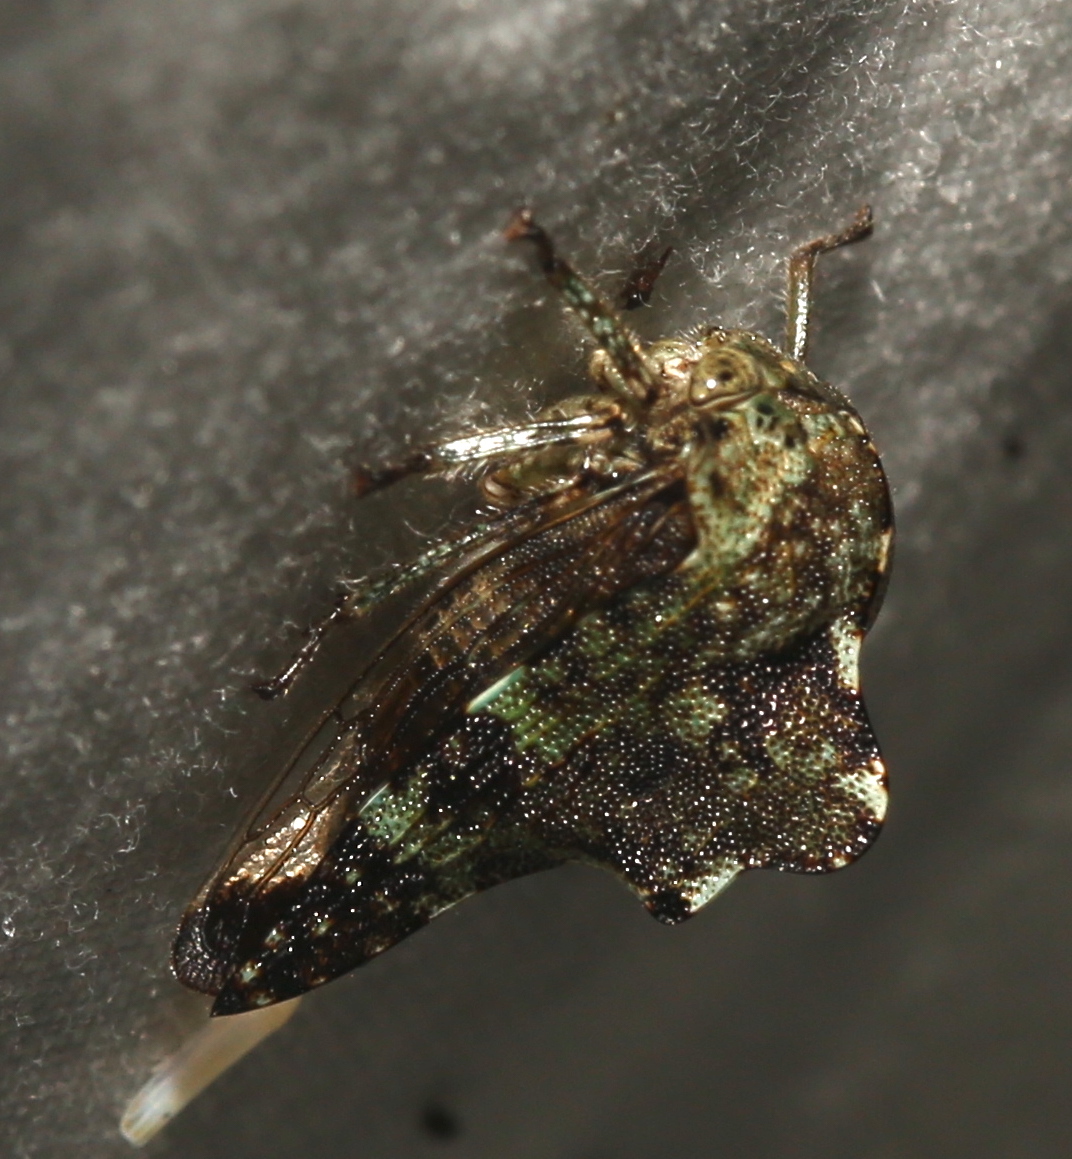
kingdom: Animalia
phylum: Arthropoda
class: Insecta
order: Hemiptera
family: Membracidae
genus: Heliria
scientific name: Heliria fitchi
